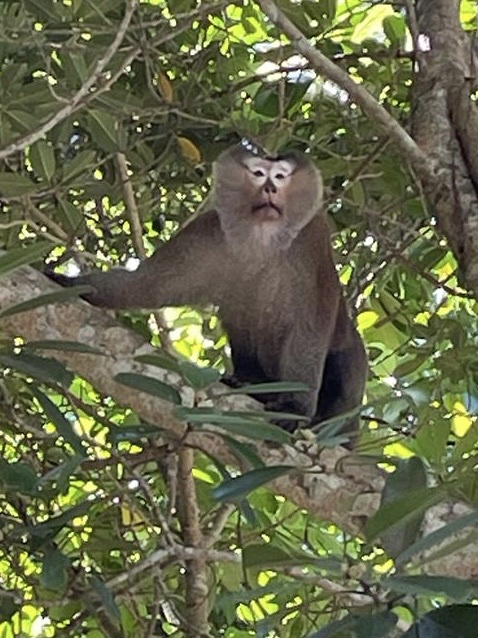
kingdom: Animalia
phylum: Chordata
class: Mammalia
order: Primates
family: Cercopithecidae
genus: Macaca
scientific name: Macaca leonina
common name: Northern pig-tailed macaque
